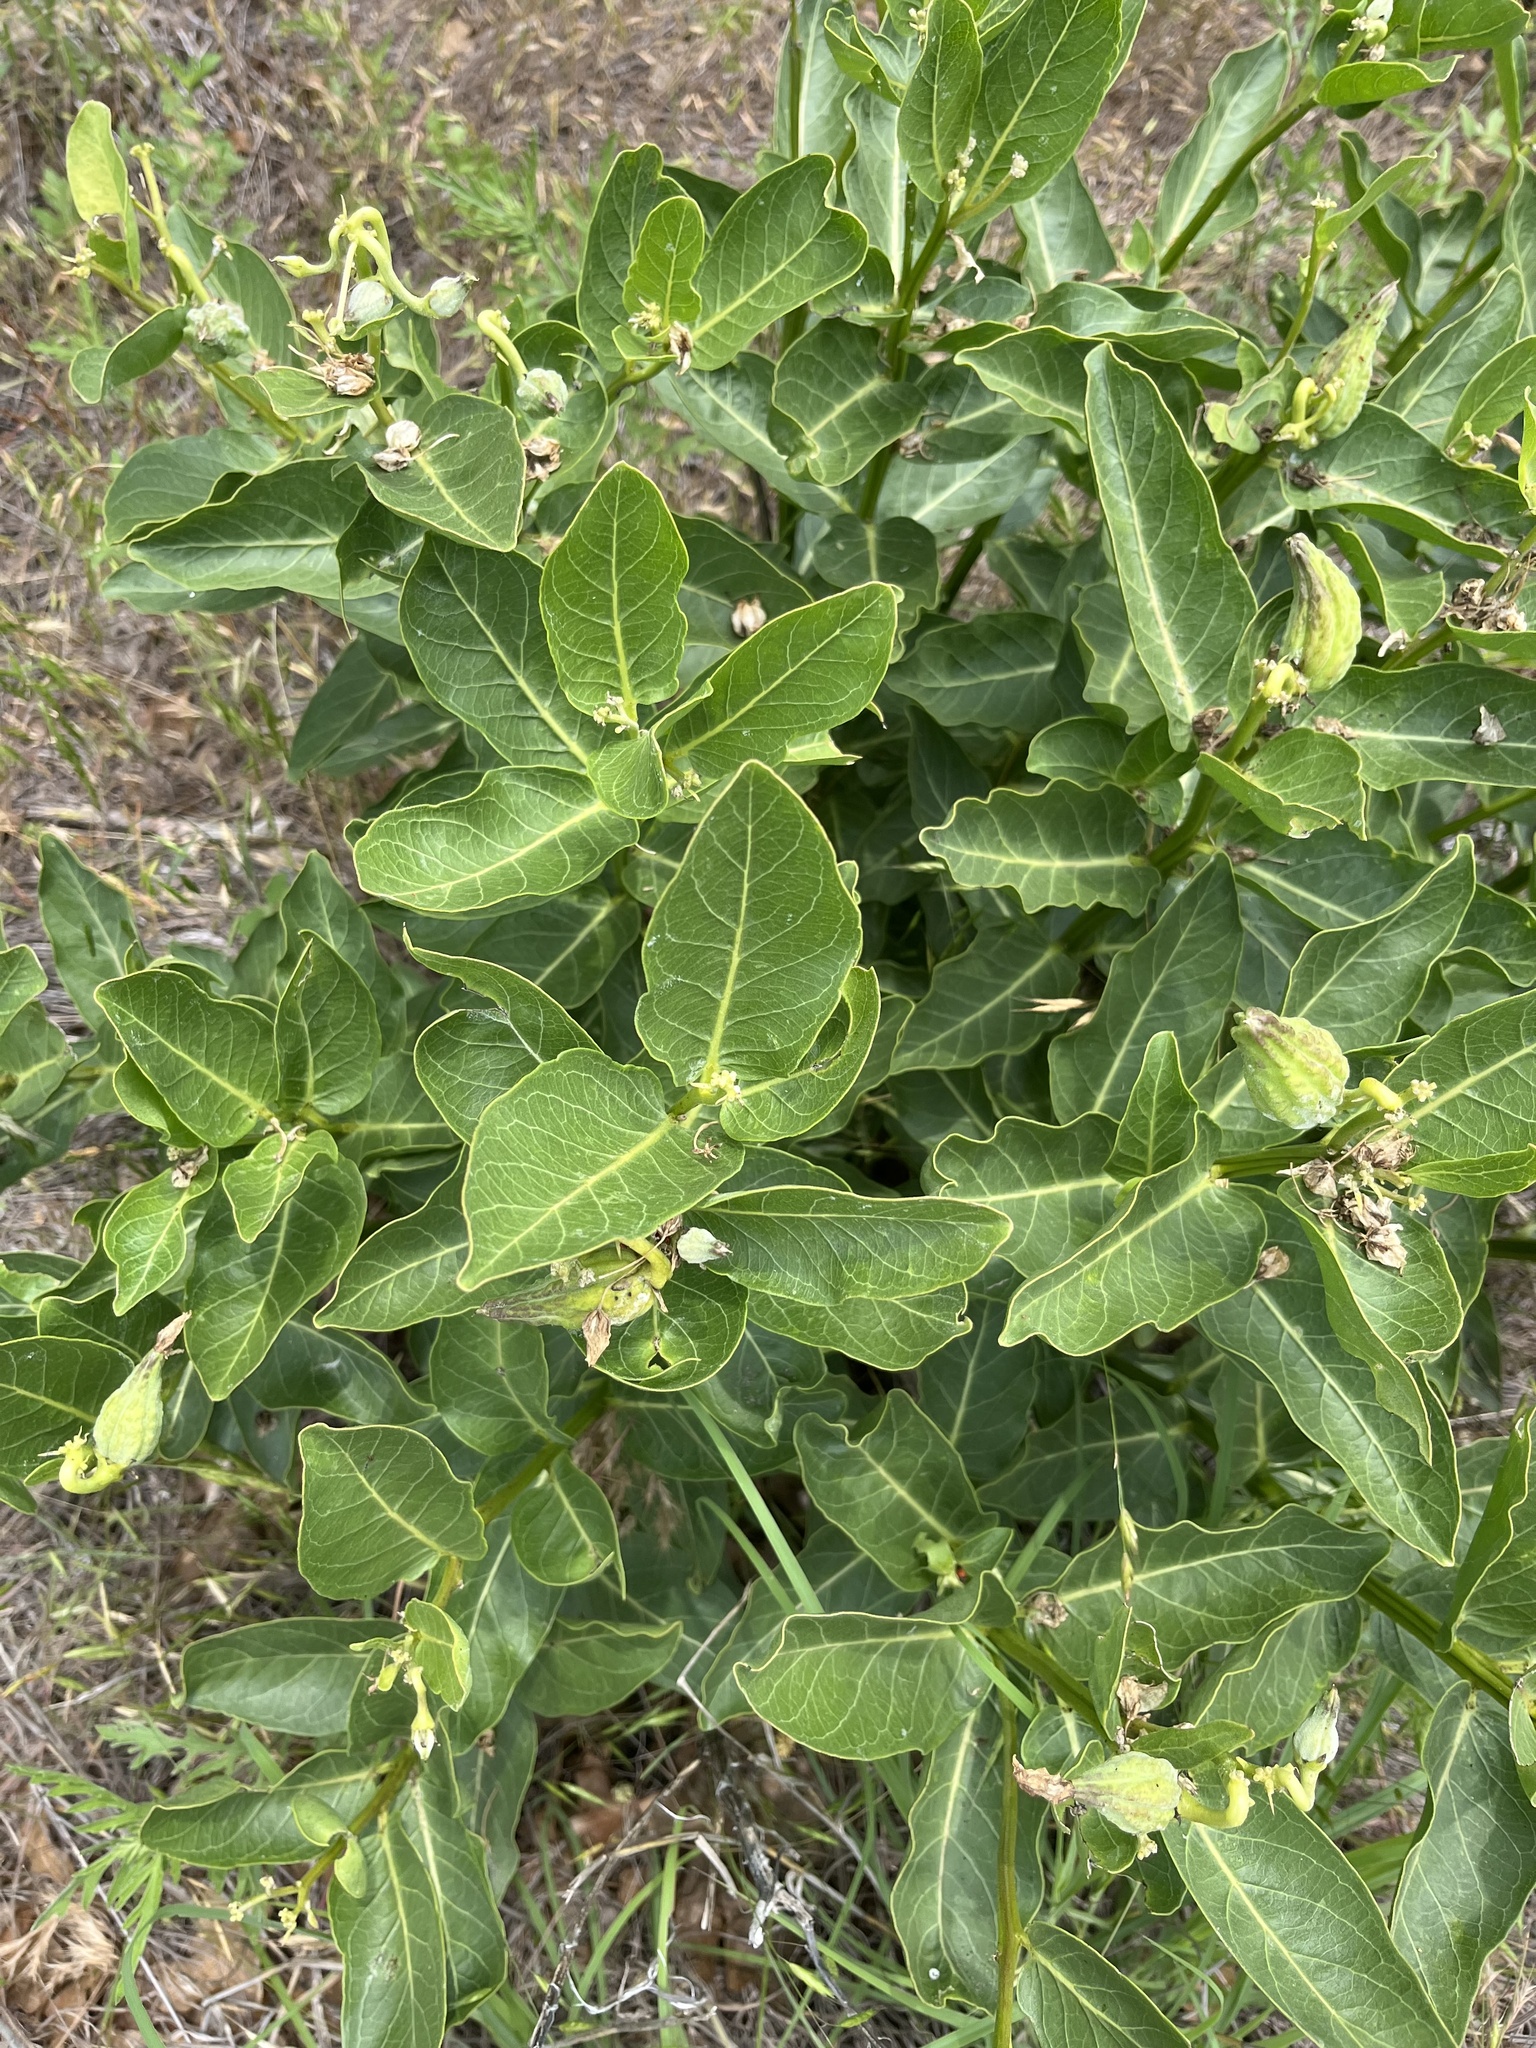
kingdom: Plantae
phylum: Tracheophyta
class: Magnoliopsida
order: Gentianales
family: Apocynaceae
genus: Asclepias
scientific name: Asclepias viridis
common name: Antelope-horns
